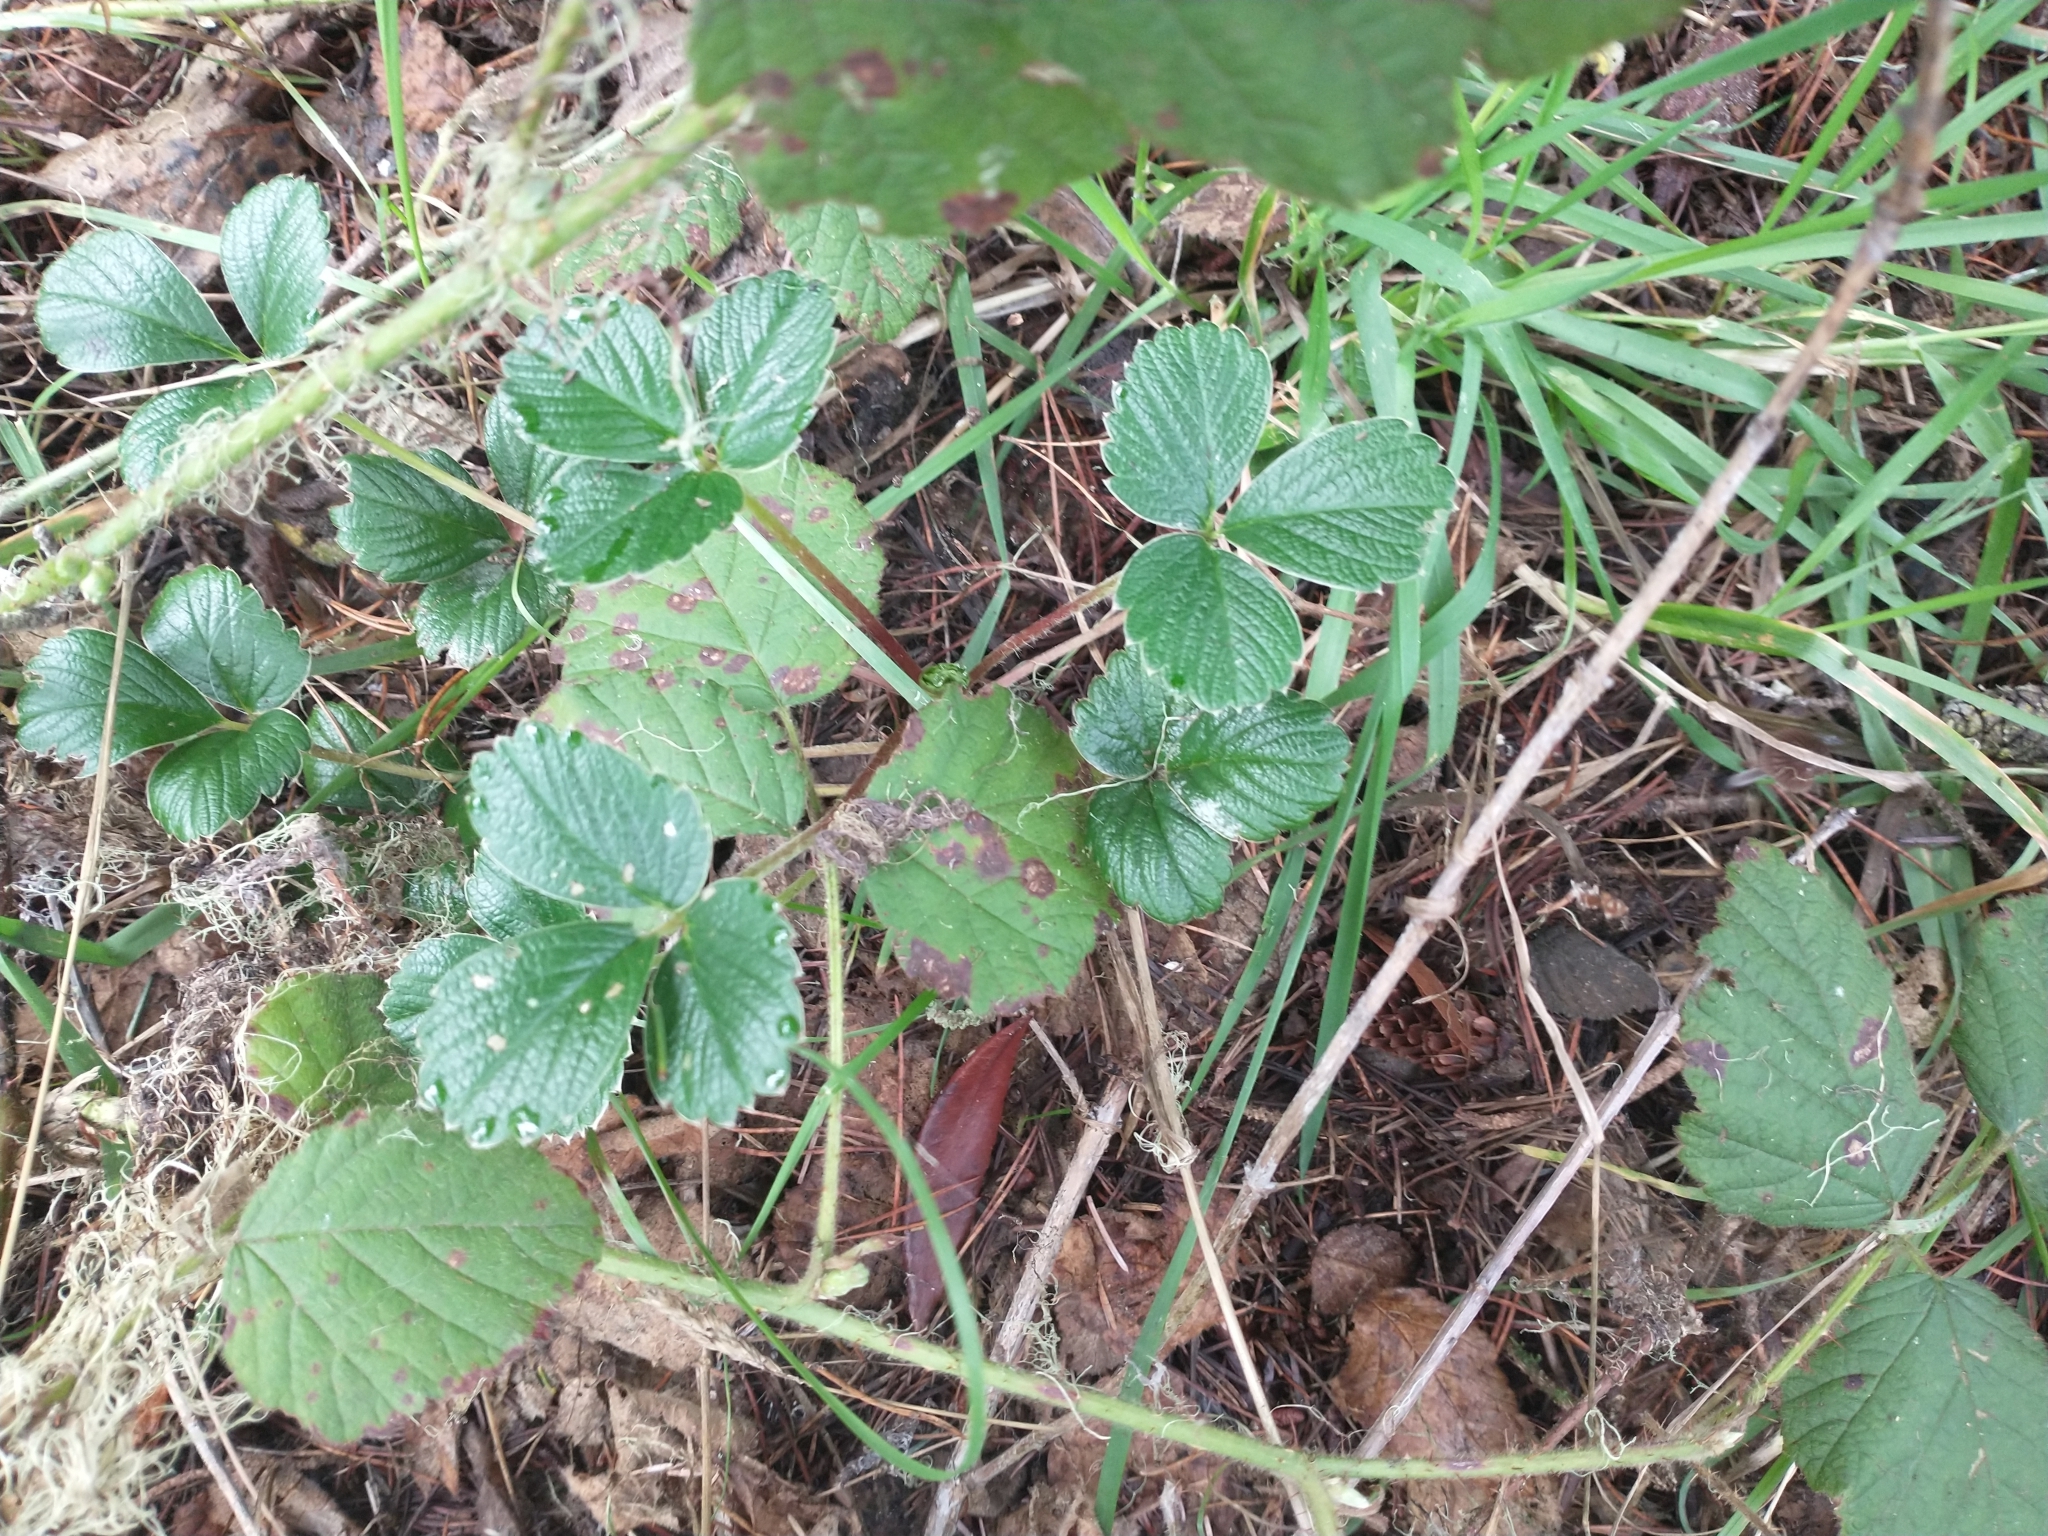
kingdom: Plantae
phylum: Tracheophyta
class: Magnoliopsida
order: Rosales
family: Rosaceae
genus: Fragaria
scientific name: Fragaria chiloensis
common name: Beach strawberry
